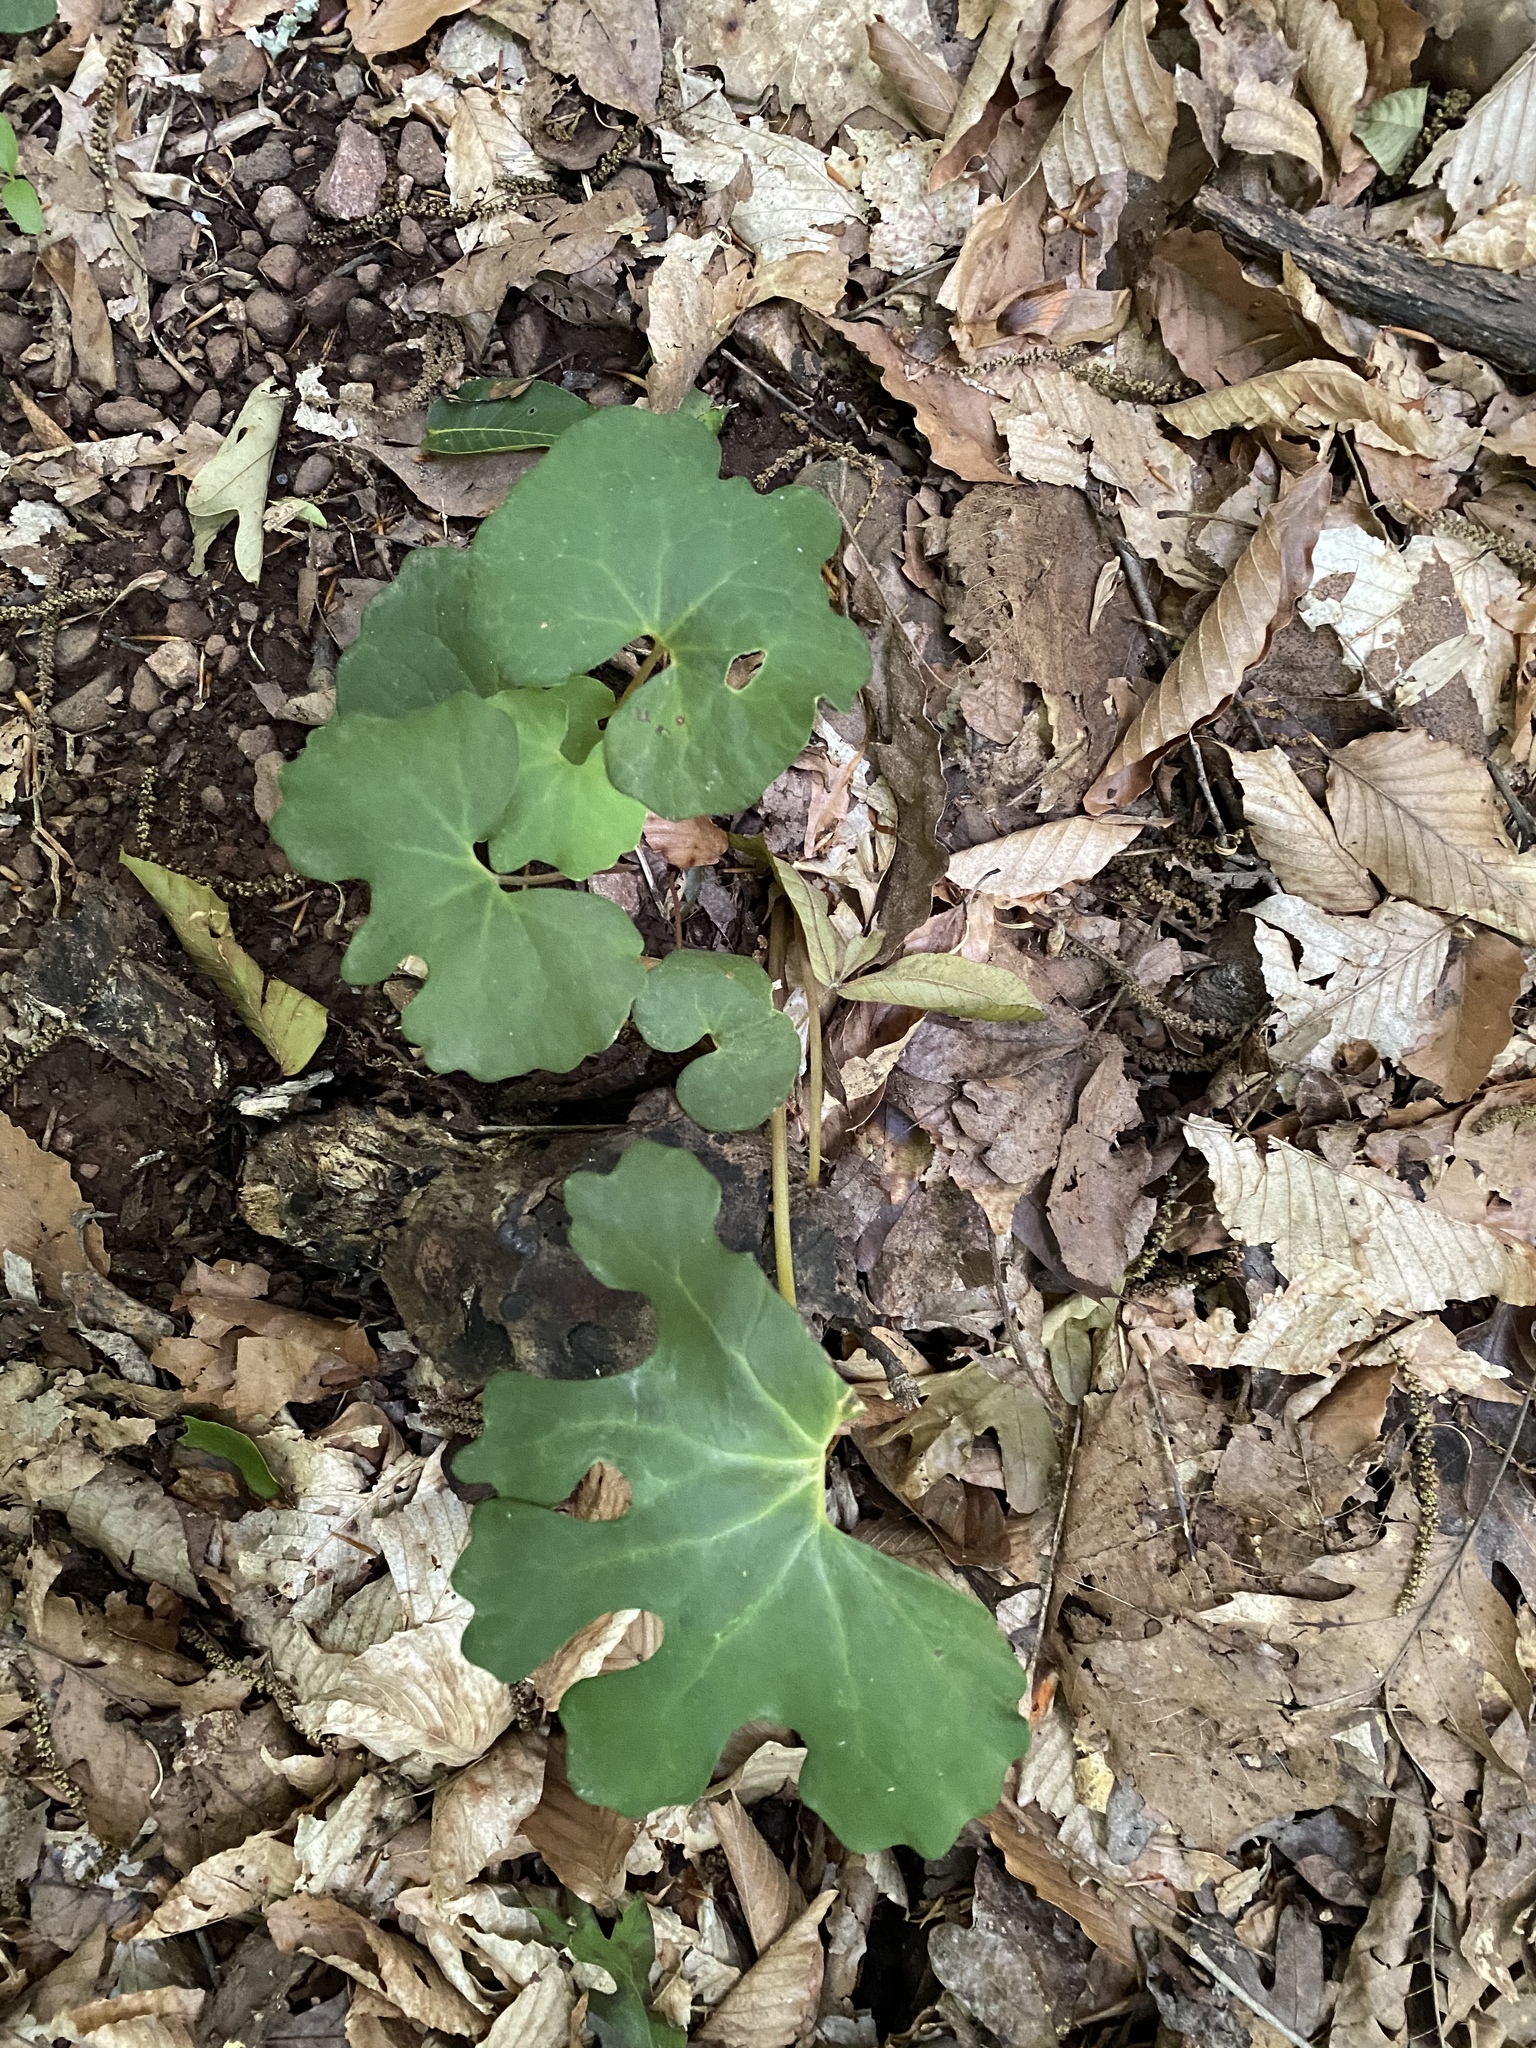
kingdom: Plantae
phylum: Tracheophyta
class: Magnoliopsida
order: Ranunculales
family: Papaveraceae
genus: Sanguinaria
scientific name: Sanguinaria canadensis
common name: Bloodroot
